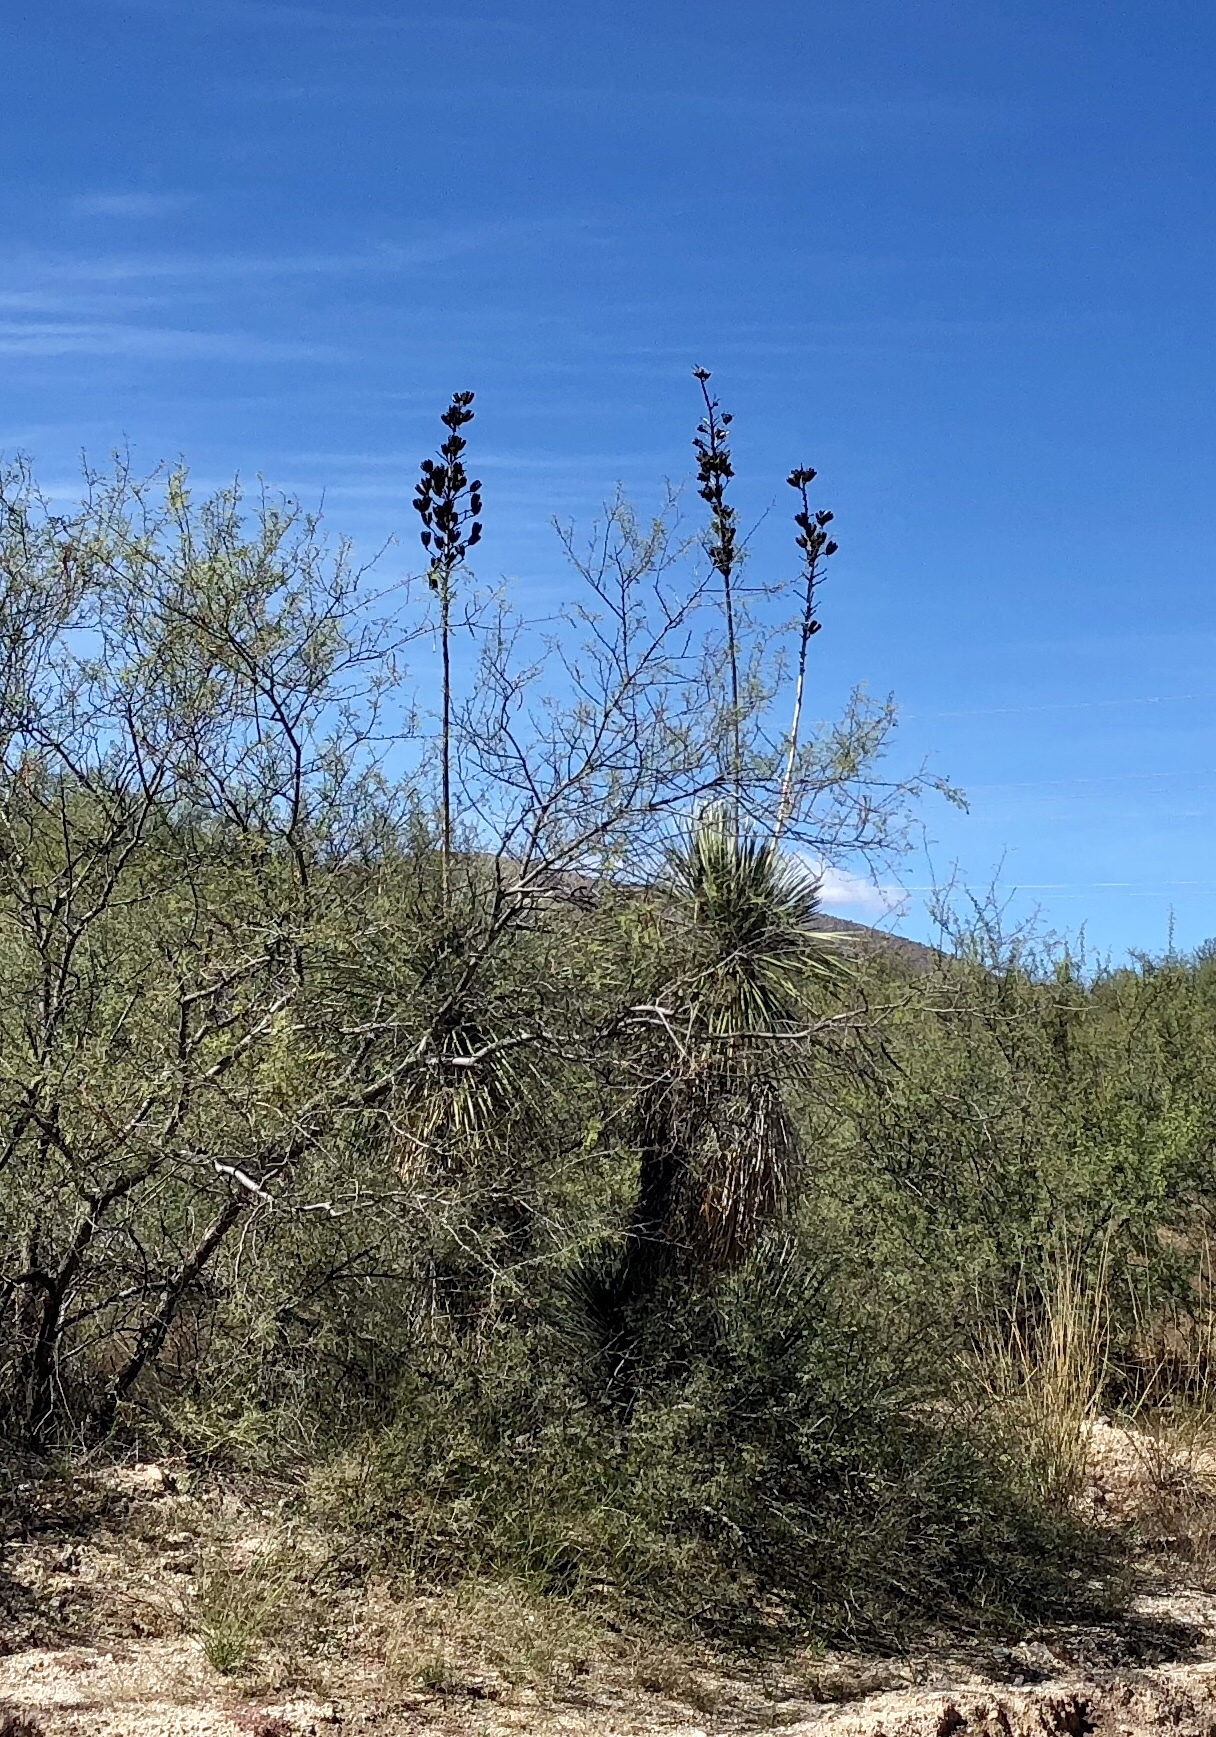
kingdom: Plantae
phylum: Tracheophyta
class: Liliopsida
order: Asparagales
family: Asparagaceae
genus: Yucca
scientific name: Yucca elata
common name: Palmella
